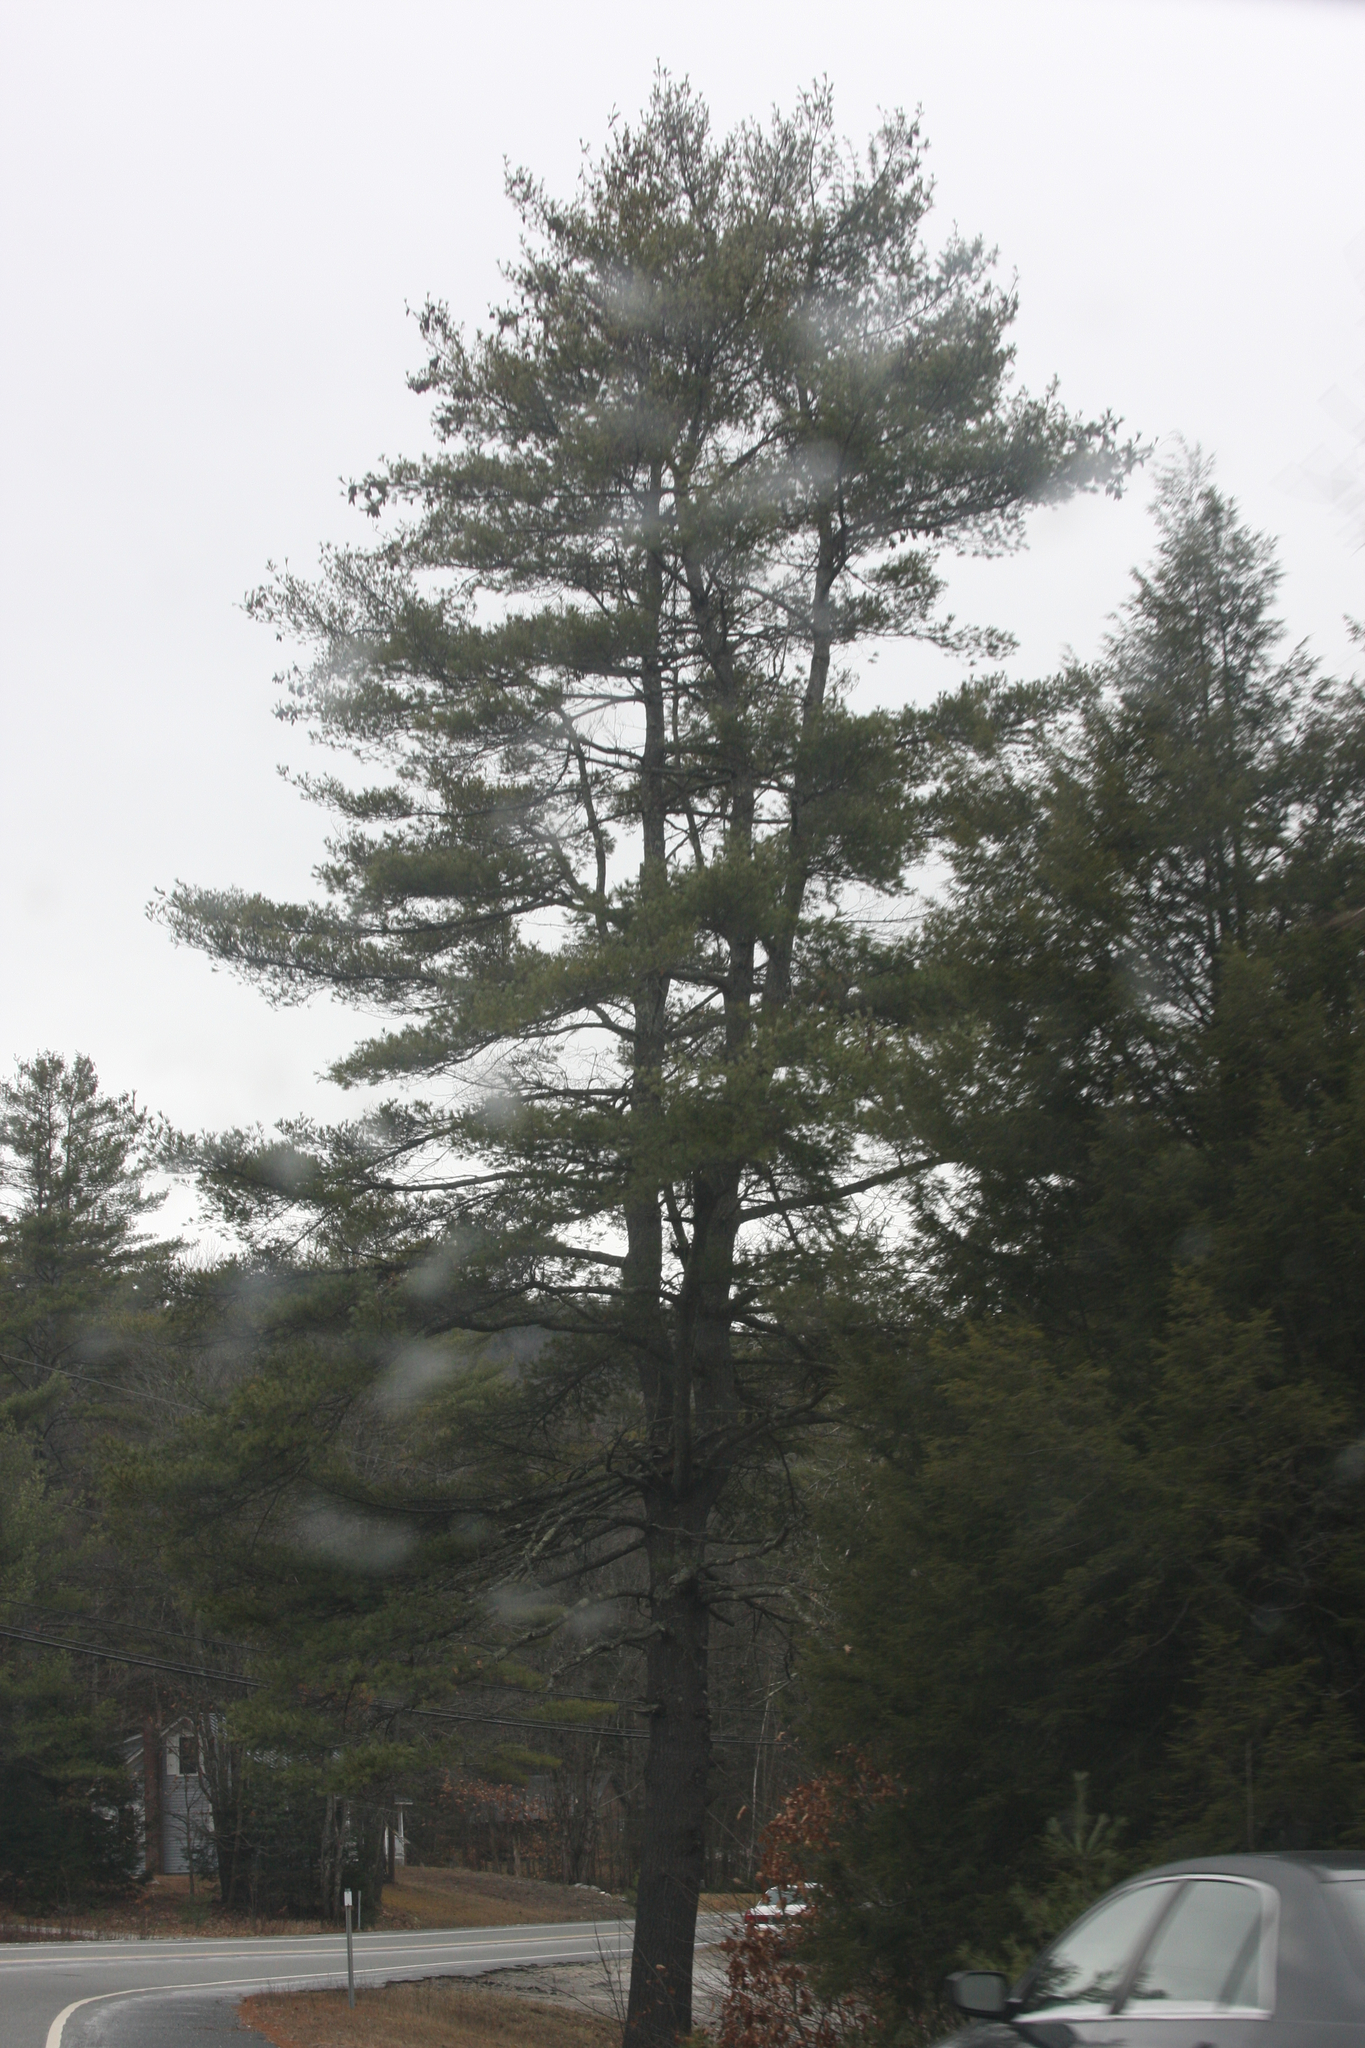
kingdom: Plantae
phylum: Tracheophyta
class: Pinopsida
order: Pinales
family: Pinaceae
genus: Pinus
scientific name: Pinus strobus
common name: Weymouth pine
